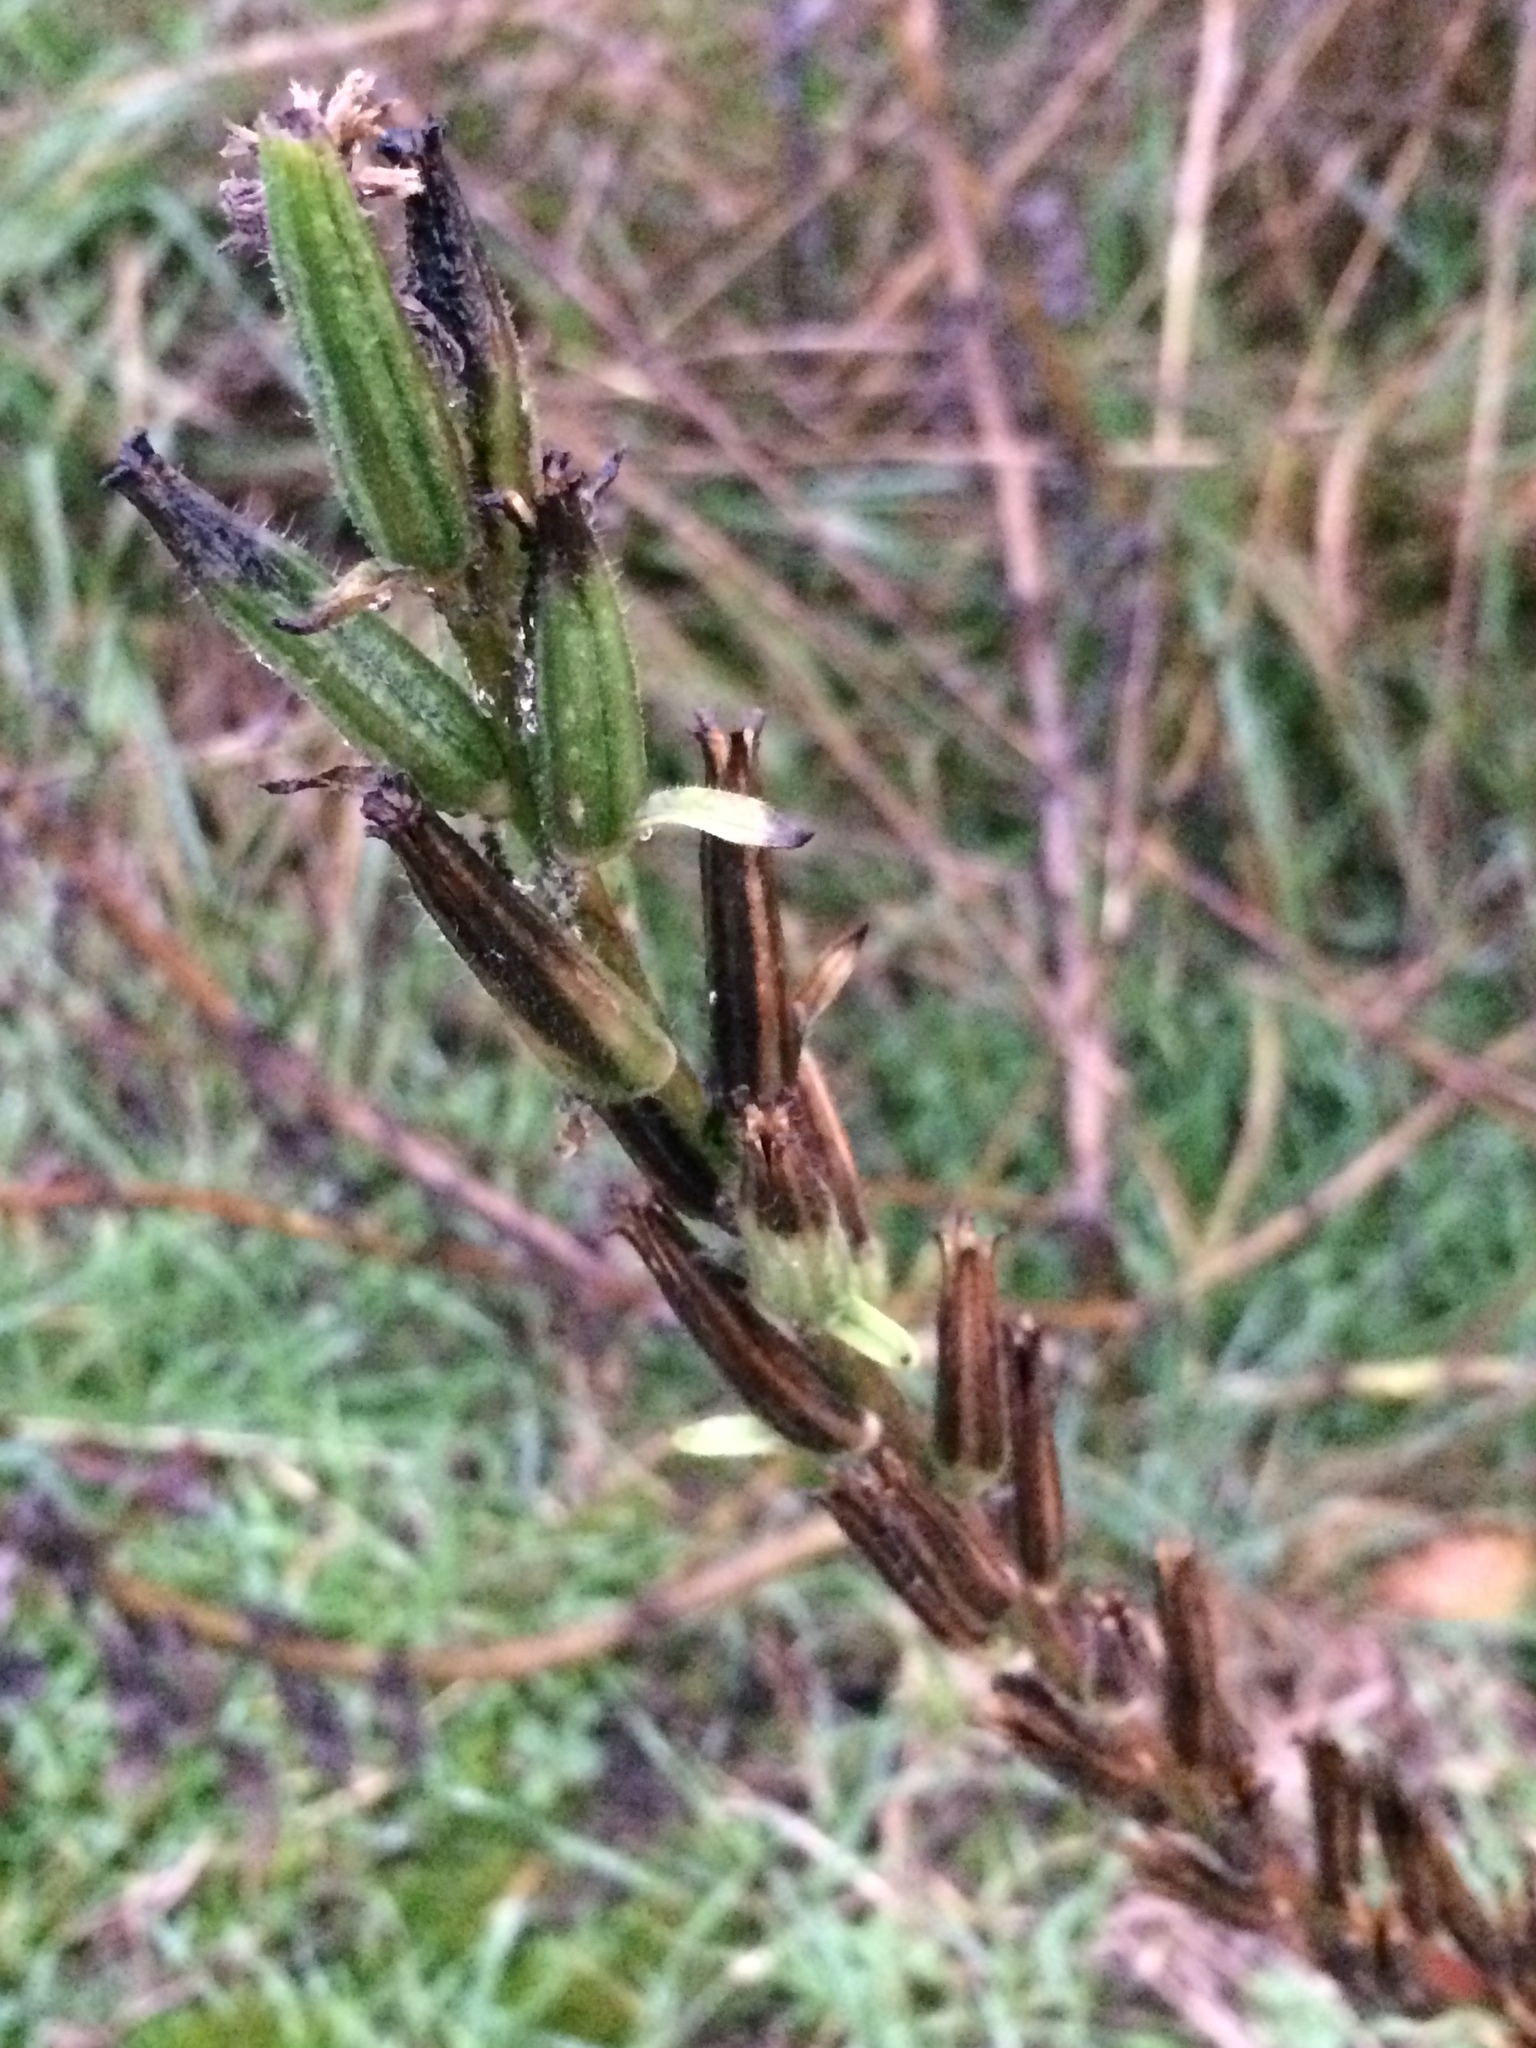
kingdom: Plantae
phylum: Tracheophyta
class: Magnoliopsida
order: Myrtales
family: Onagraceae
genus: Oenothera
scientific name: Oenothera biennis
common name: Common evening-primrose
